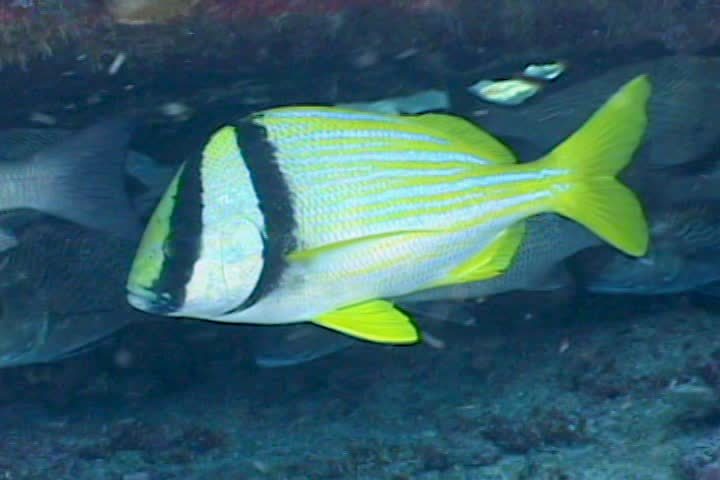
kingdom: Animalia
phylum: Chordata
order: Perciformes
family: Haemulidae
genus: Anisotremus
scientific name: Anisotremus virginicus
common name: Porkfish
